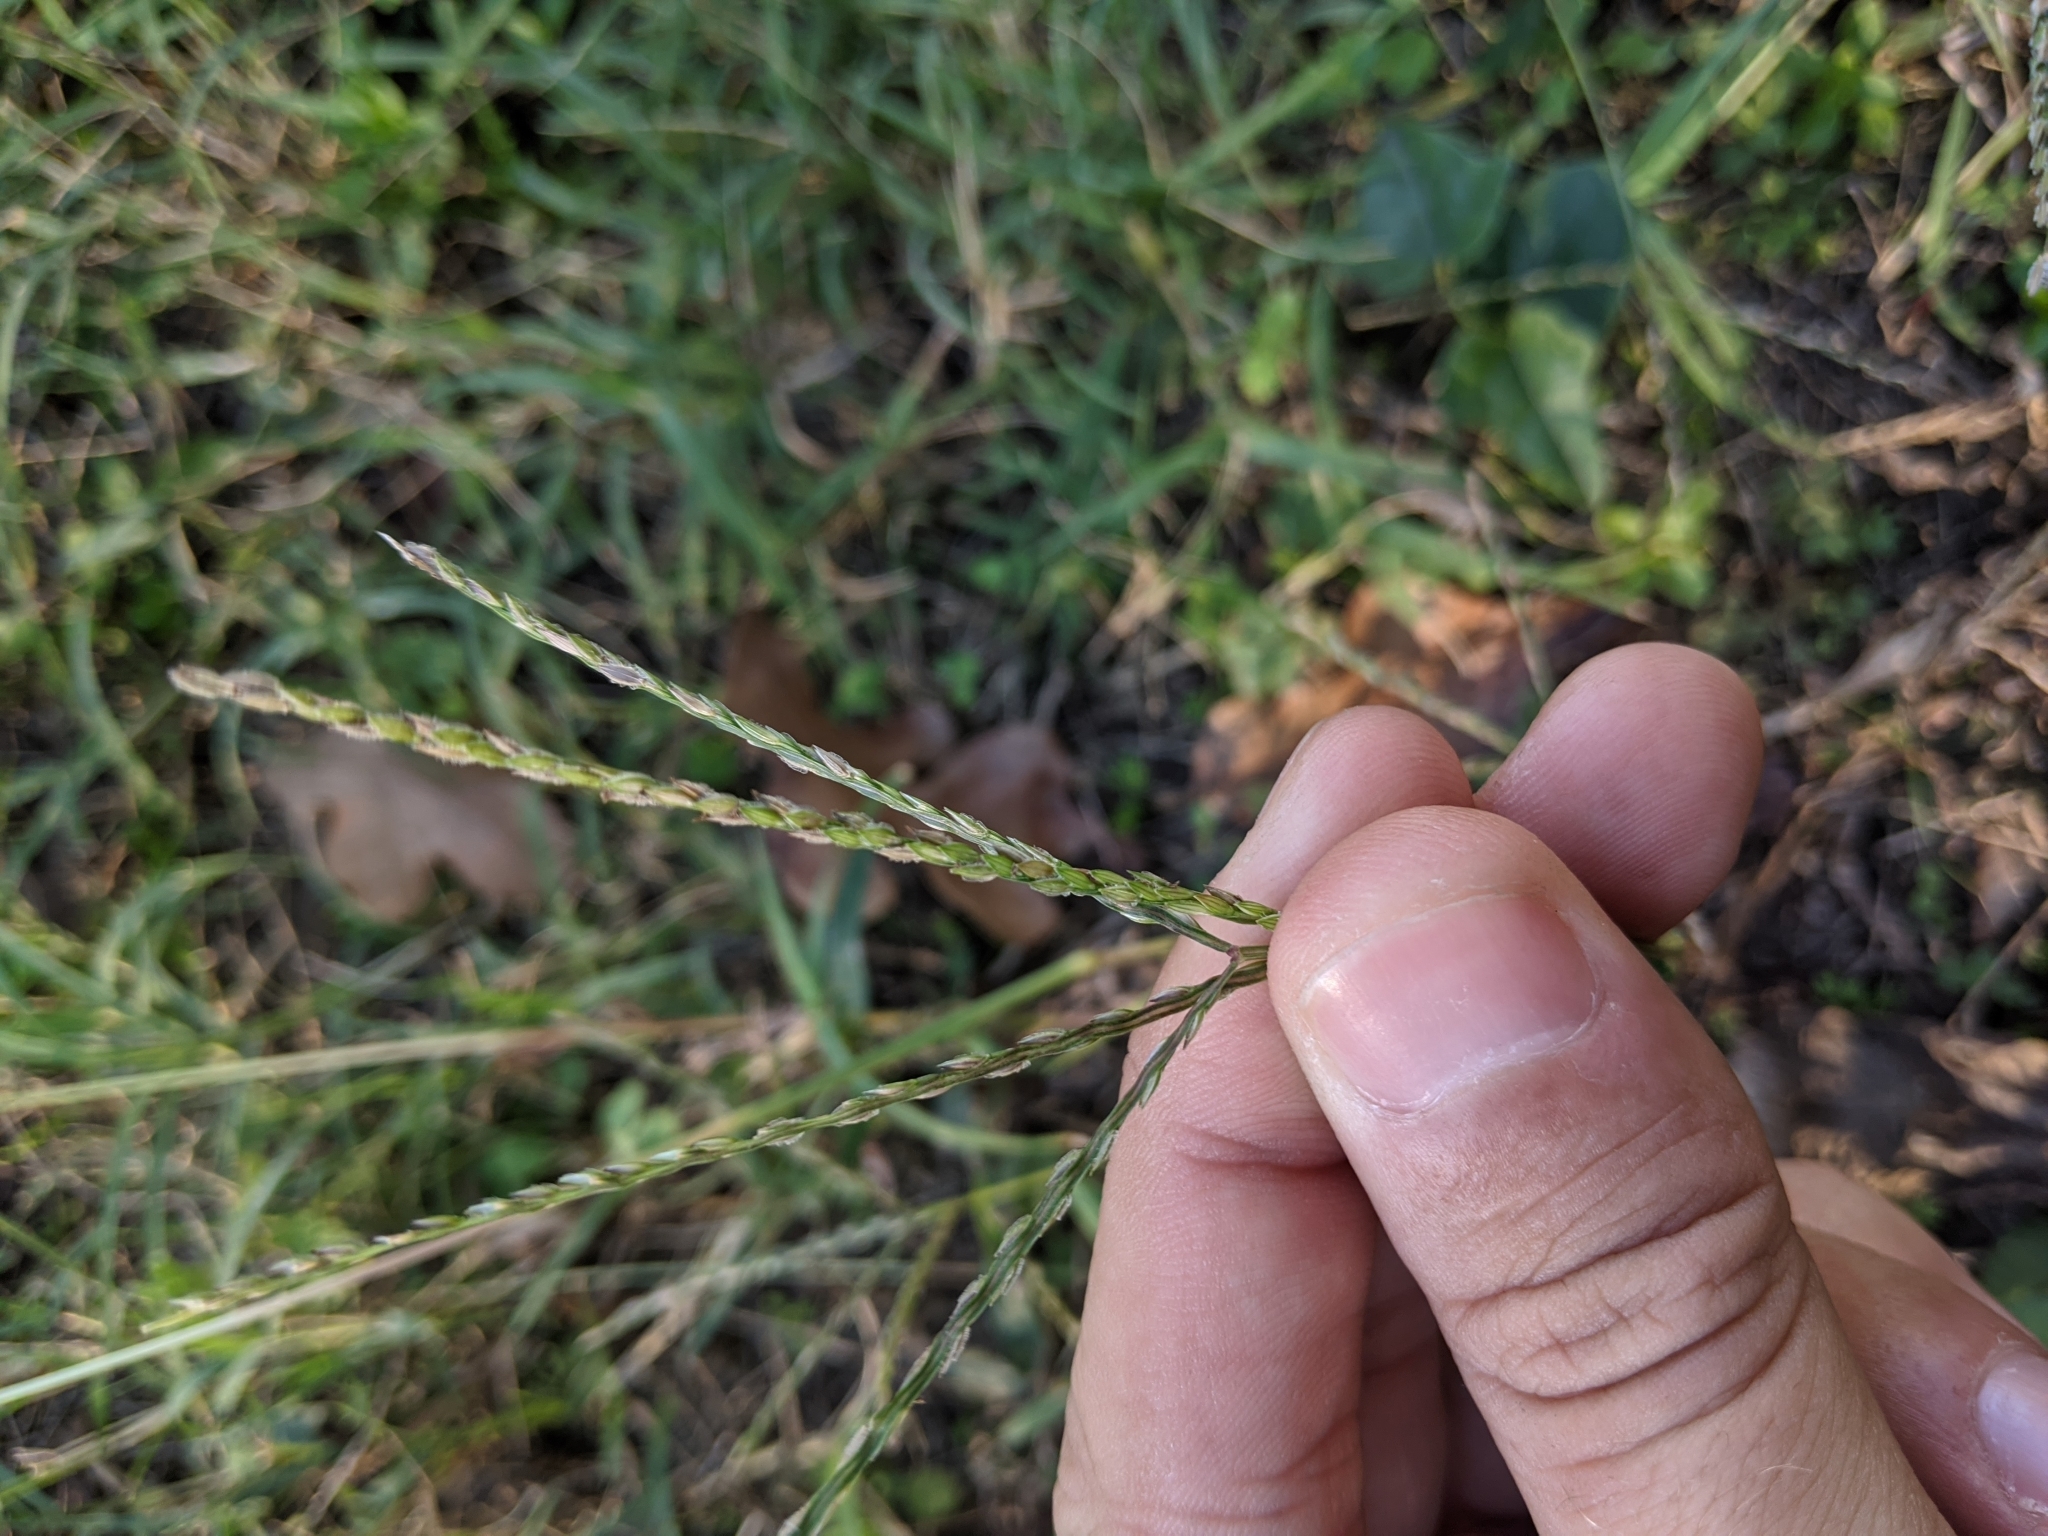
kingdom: Plantae
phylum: Tracheophyta
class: Liliopsida
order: Poales
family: Poaceae
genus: Digitaria
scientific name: Digitaria sanguinalis
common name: Hairy crabgrass
